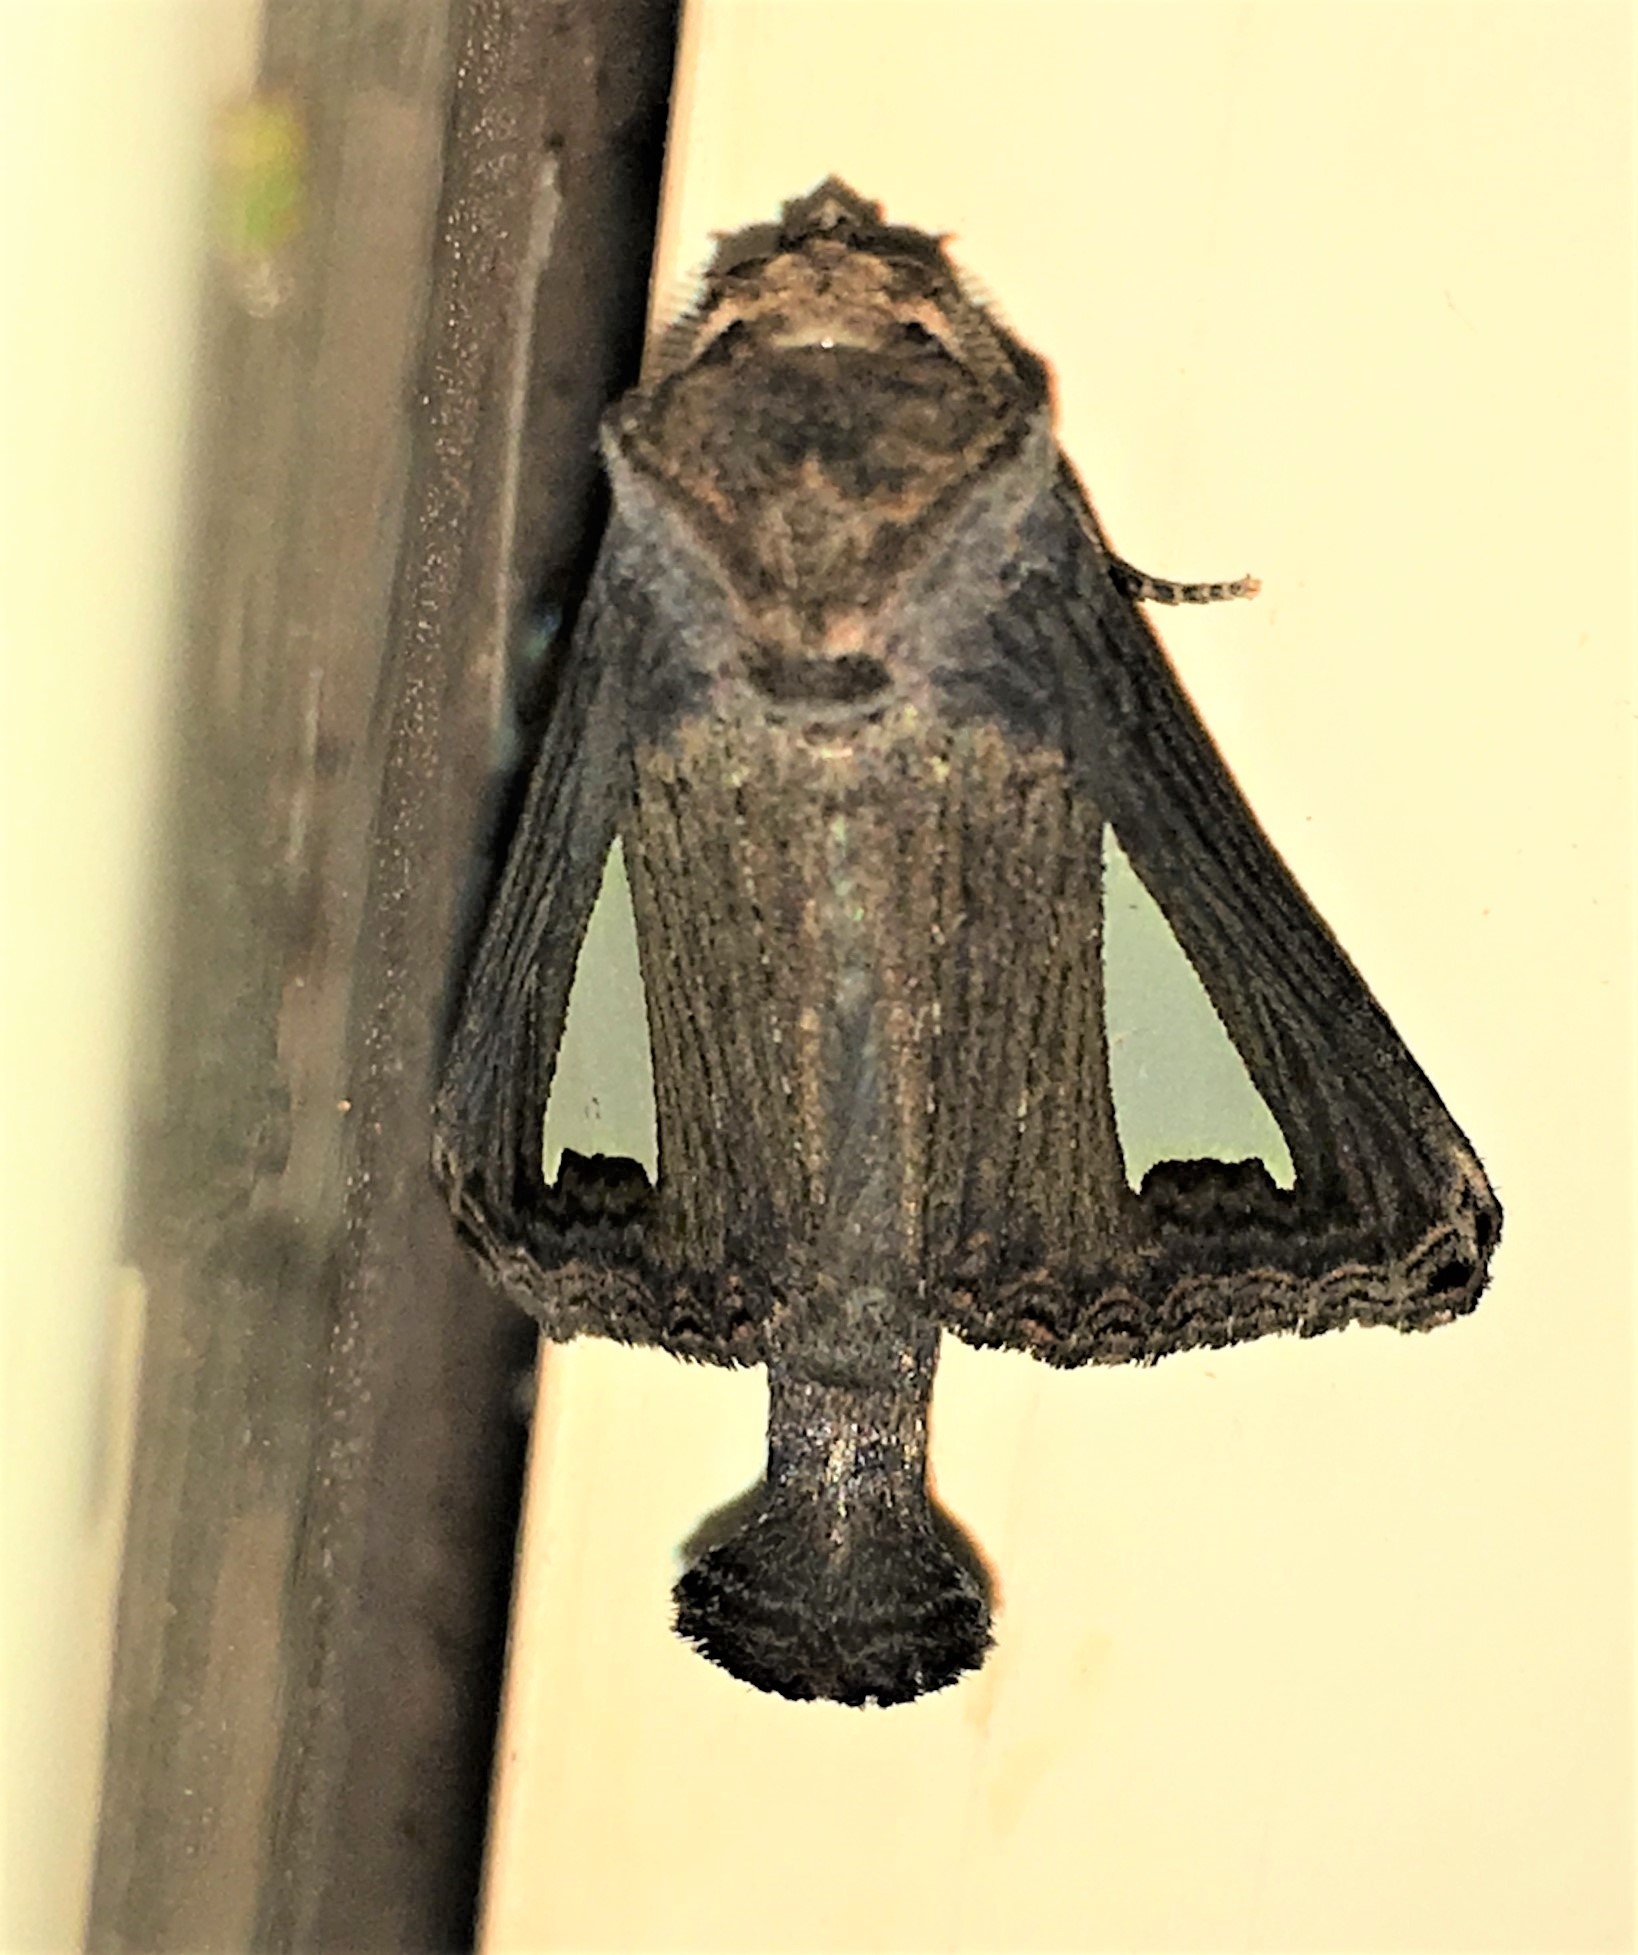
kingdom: Animalia
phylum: Arthropoda
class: Insecta
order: Lepidoptera
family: Notodontidae
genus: Notoplusia
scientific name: Notoplusia clara
